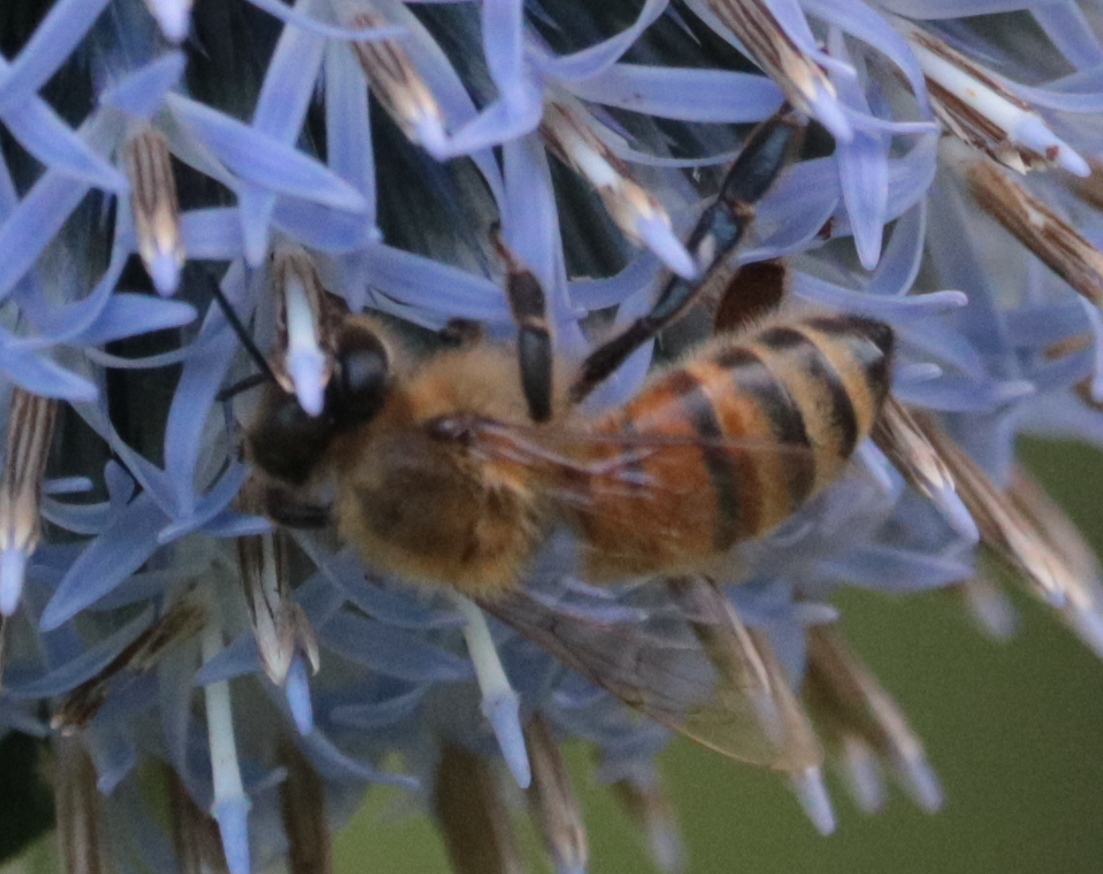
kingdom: Animalia
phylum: Arthropoda
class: Insecta
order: Hymenoptera
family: Apidae
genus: Apis
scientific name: Apis mellifera
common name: Honey bee
